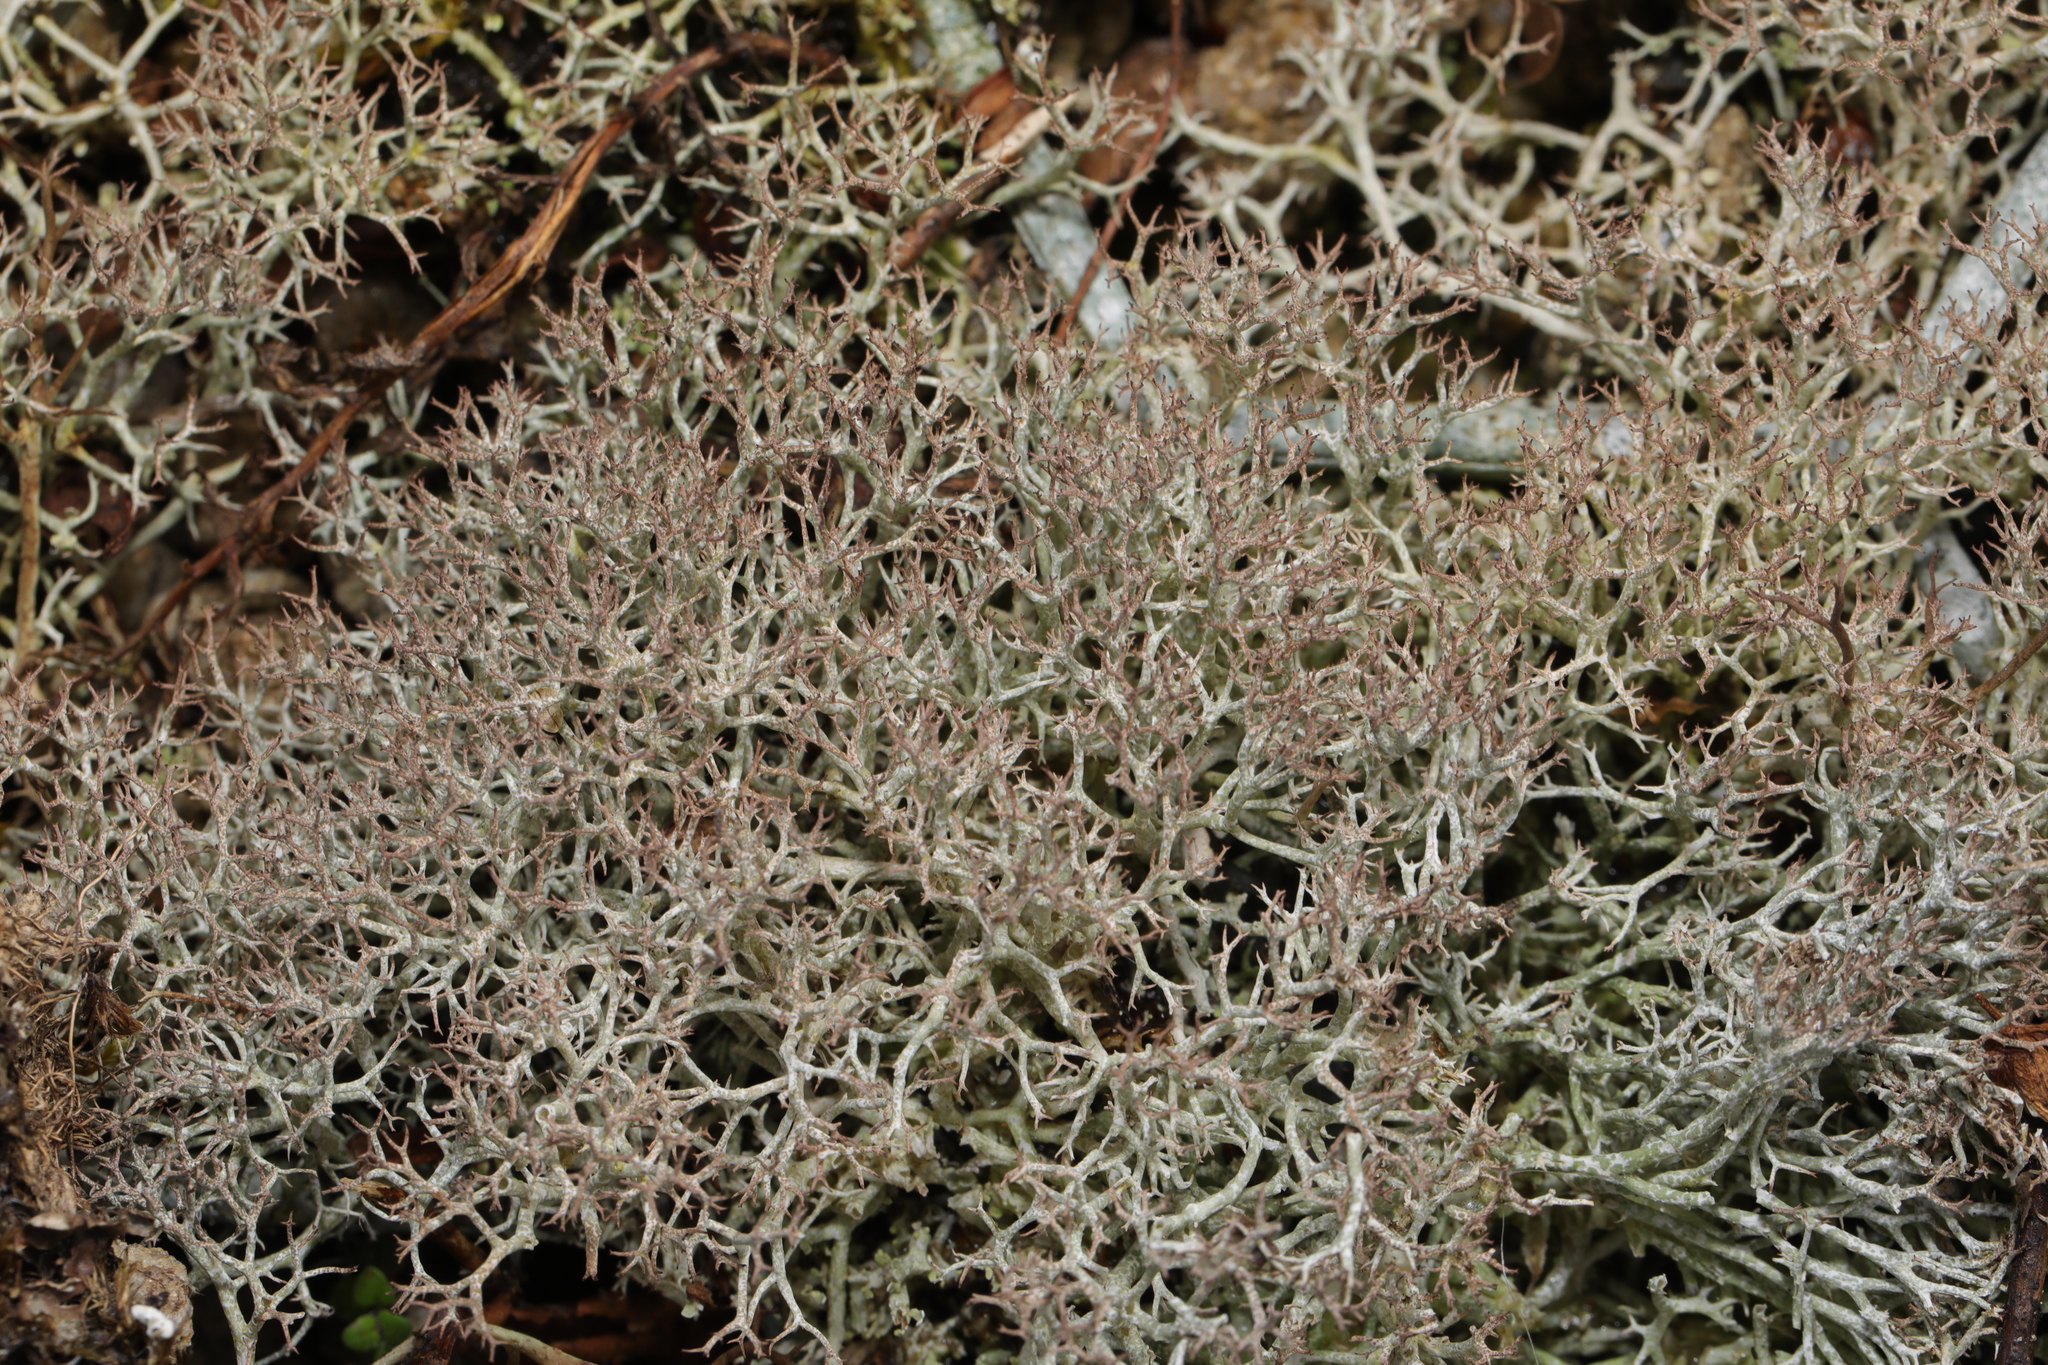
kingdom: Fungi
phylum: Ascomycota
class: Lecanoromycetes
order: Lecanorales
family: Cladoniaceae
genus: Cladonia
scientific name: Cladonia rangiformis
